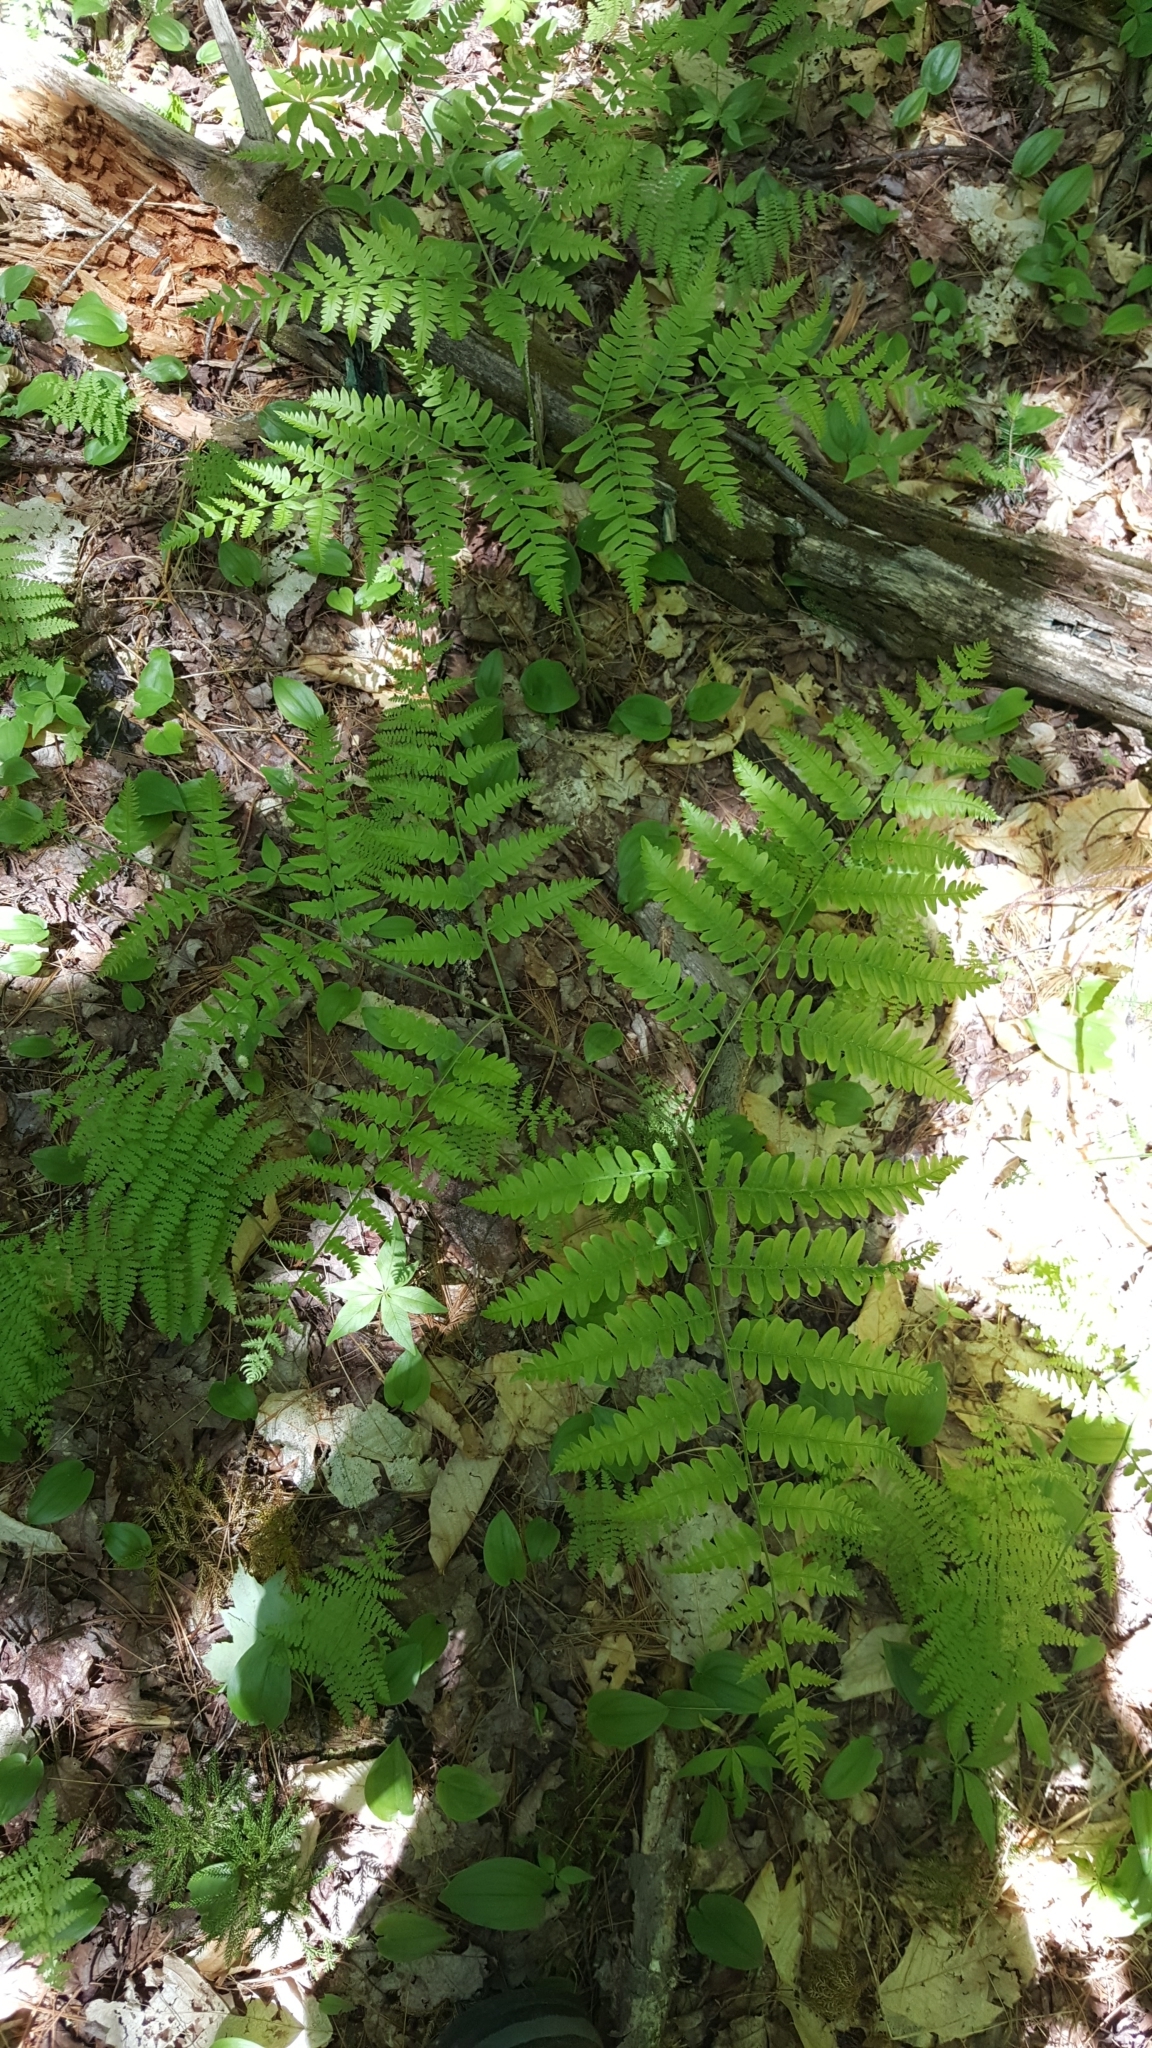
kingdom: Plantae
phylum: Tracheophyta
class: Polypodiopsida
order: Polypodiales
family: Dennstaedtiaceae
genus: Pteridium
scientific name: Pteridium aquilinum
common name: Bracken
